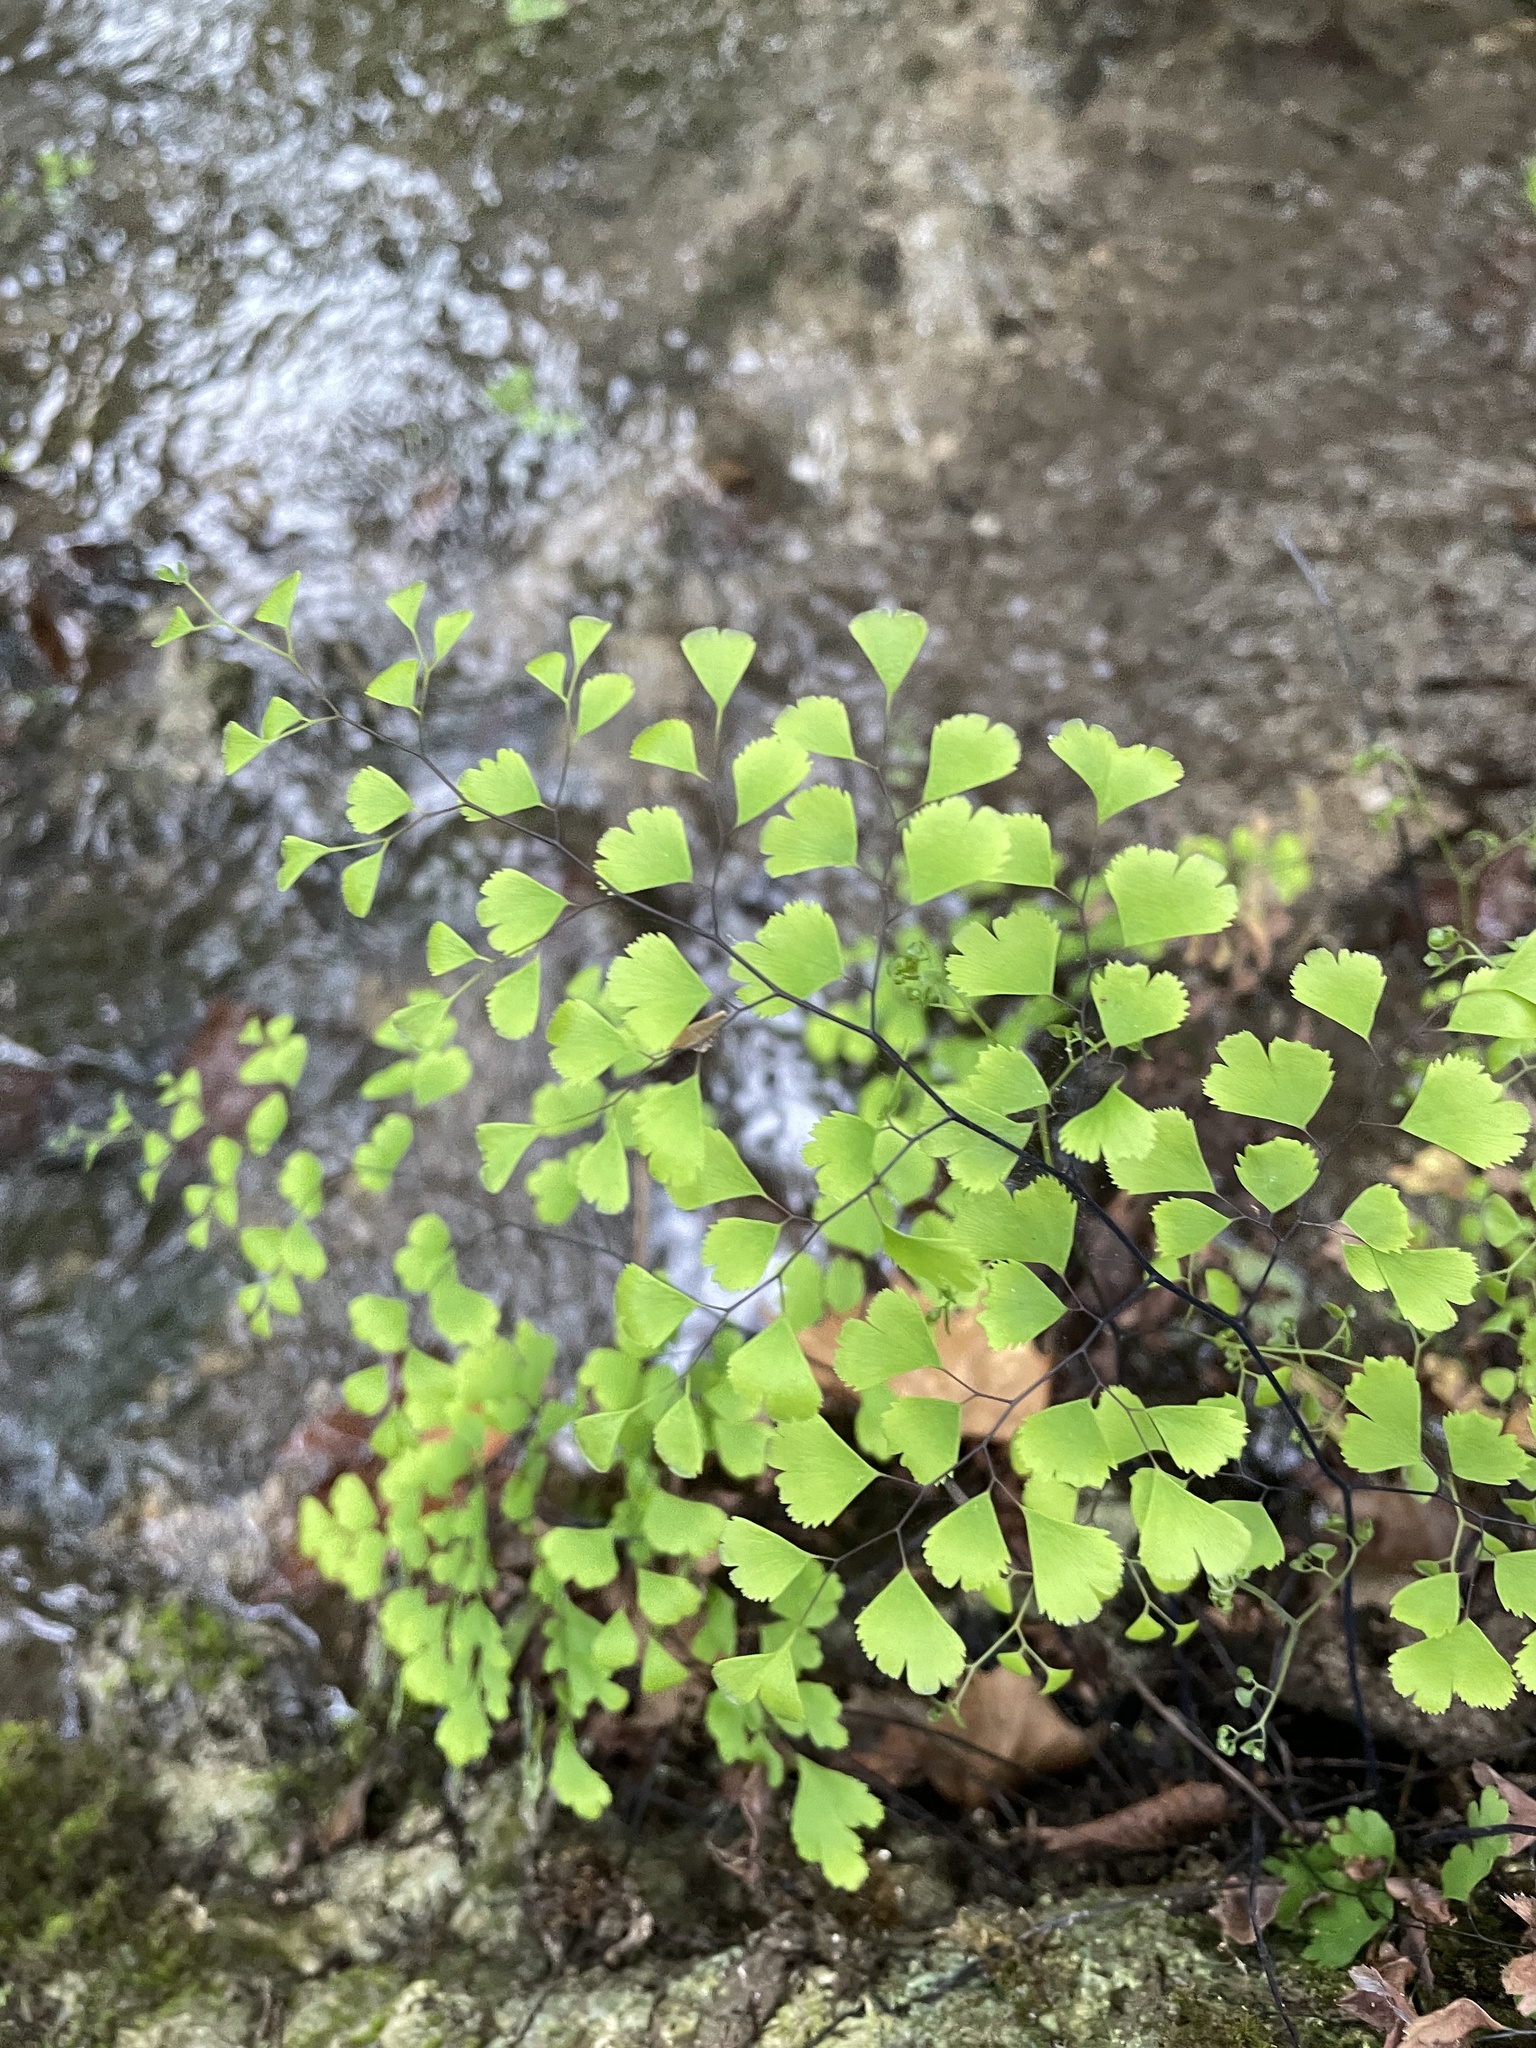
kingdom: Plantae
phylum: Tracheophyta
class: Polypodiopsida
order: Polypodiales
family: Pteridaceae
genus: Adiantum
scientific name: Adiantum capillus-veneris
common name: Maidenhair fern
